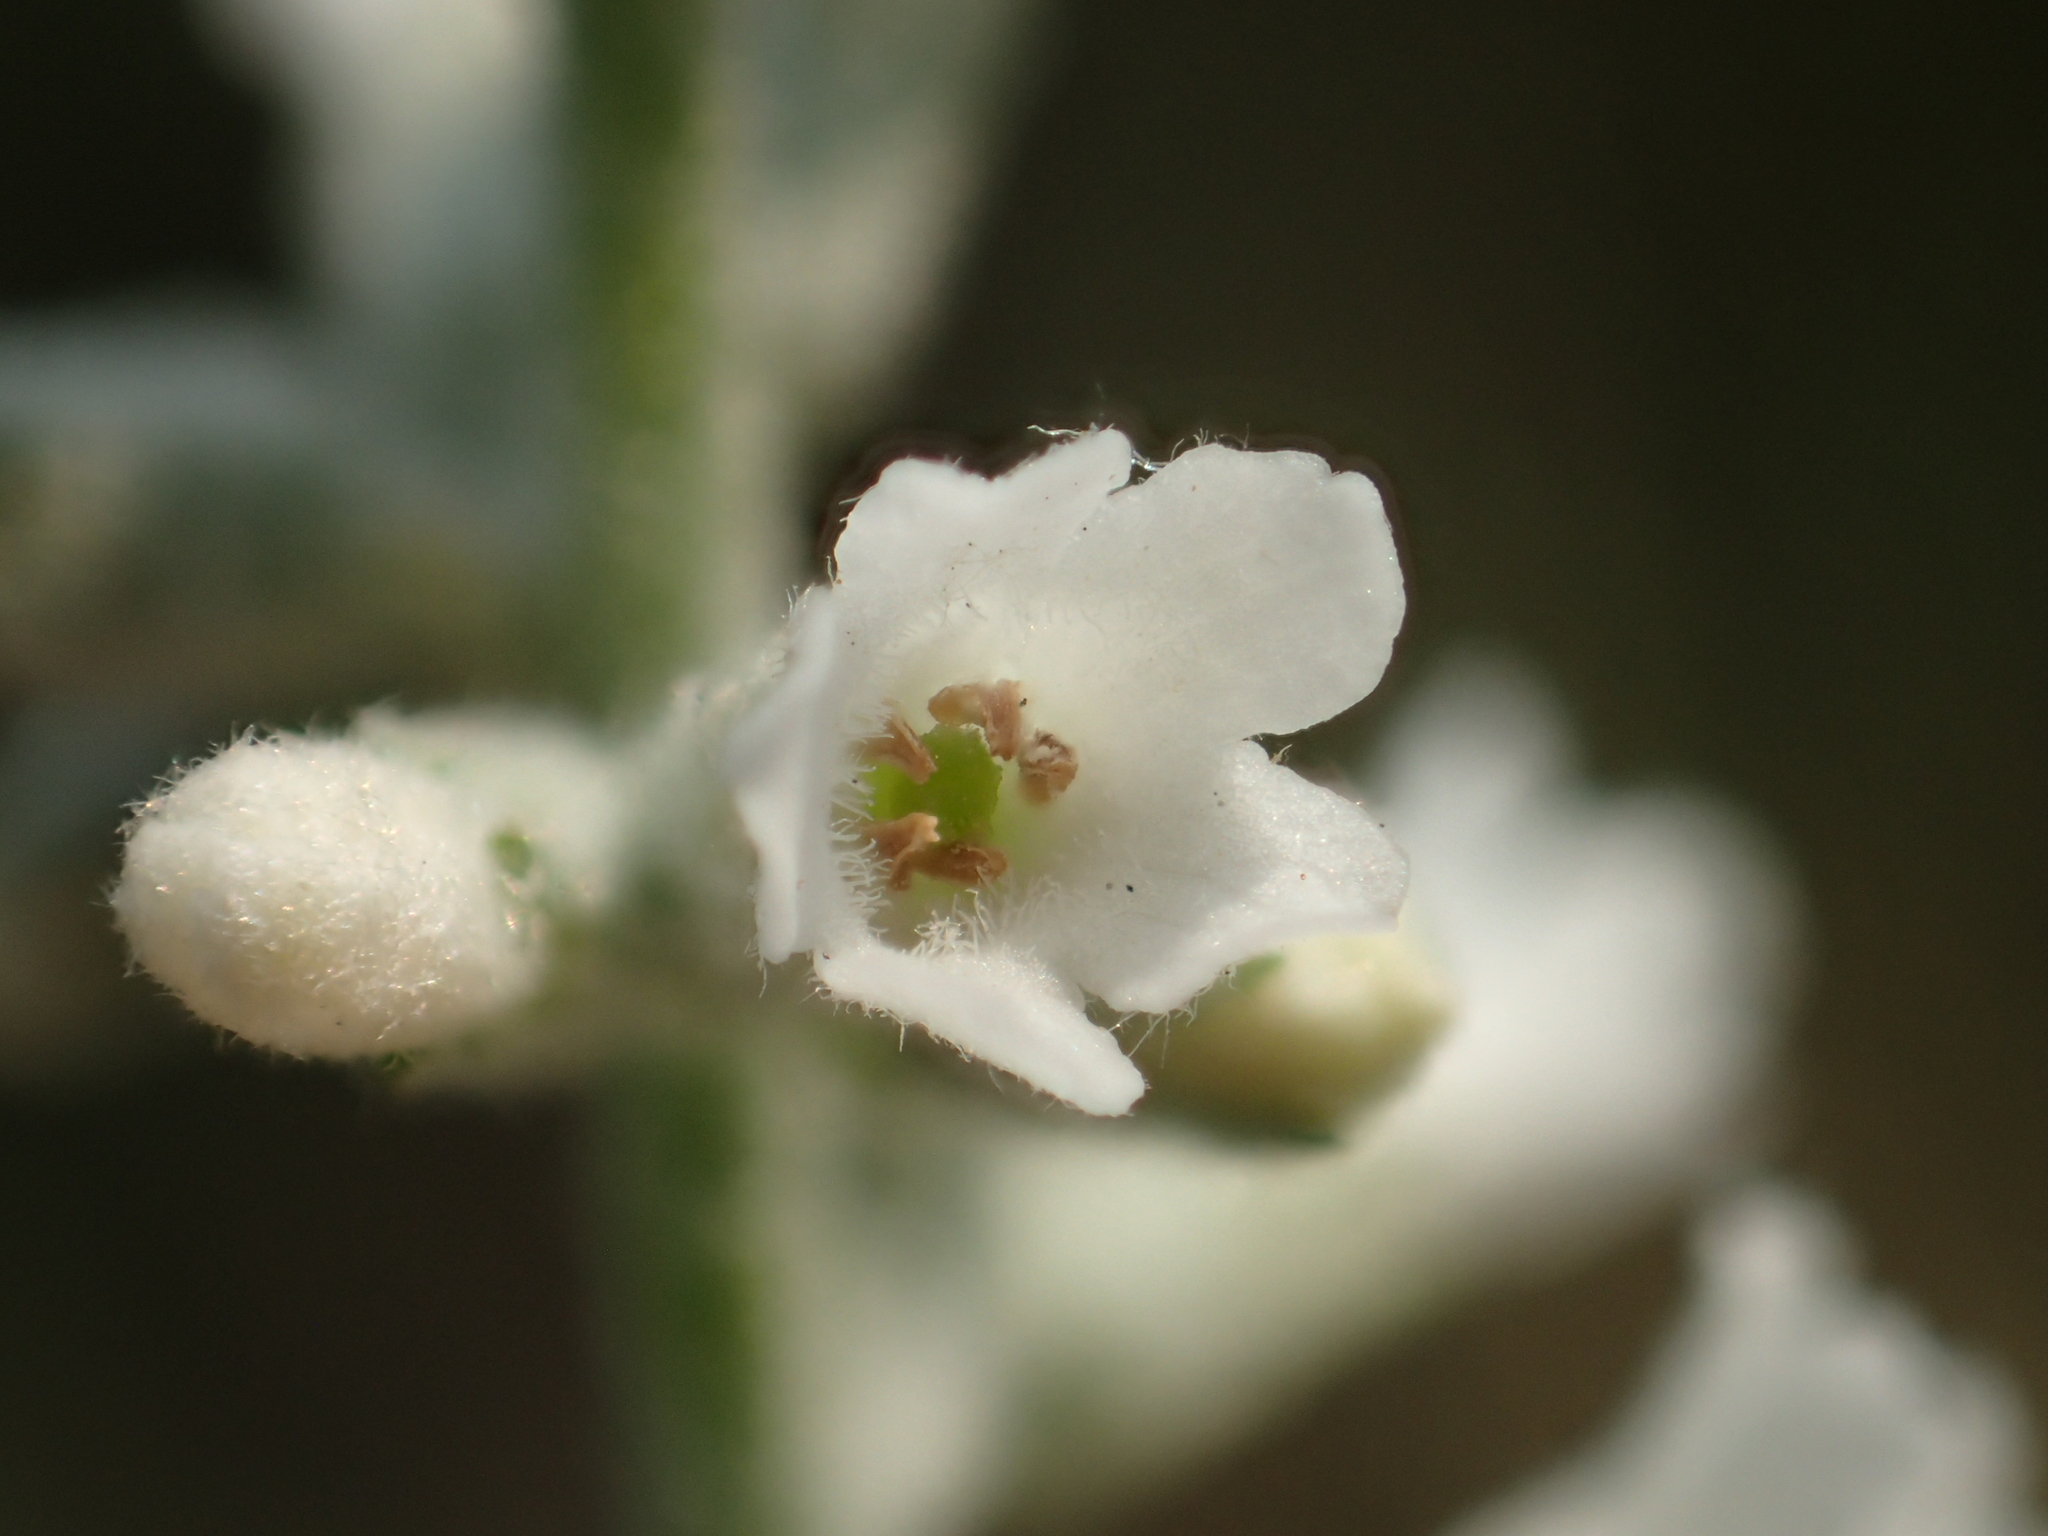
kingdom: Plantae
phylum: Tracheophyta
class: Magnoliopsida
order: Lamiales
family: Scrophulariaceae
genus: Buddleja
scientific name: Buddleja asiatica
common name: Dog tail
